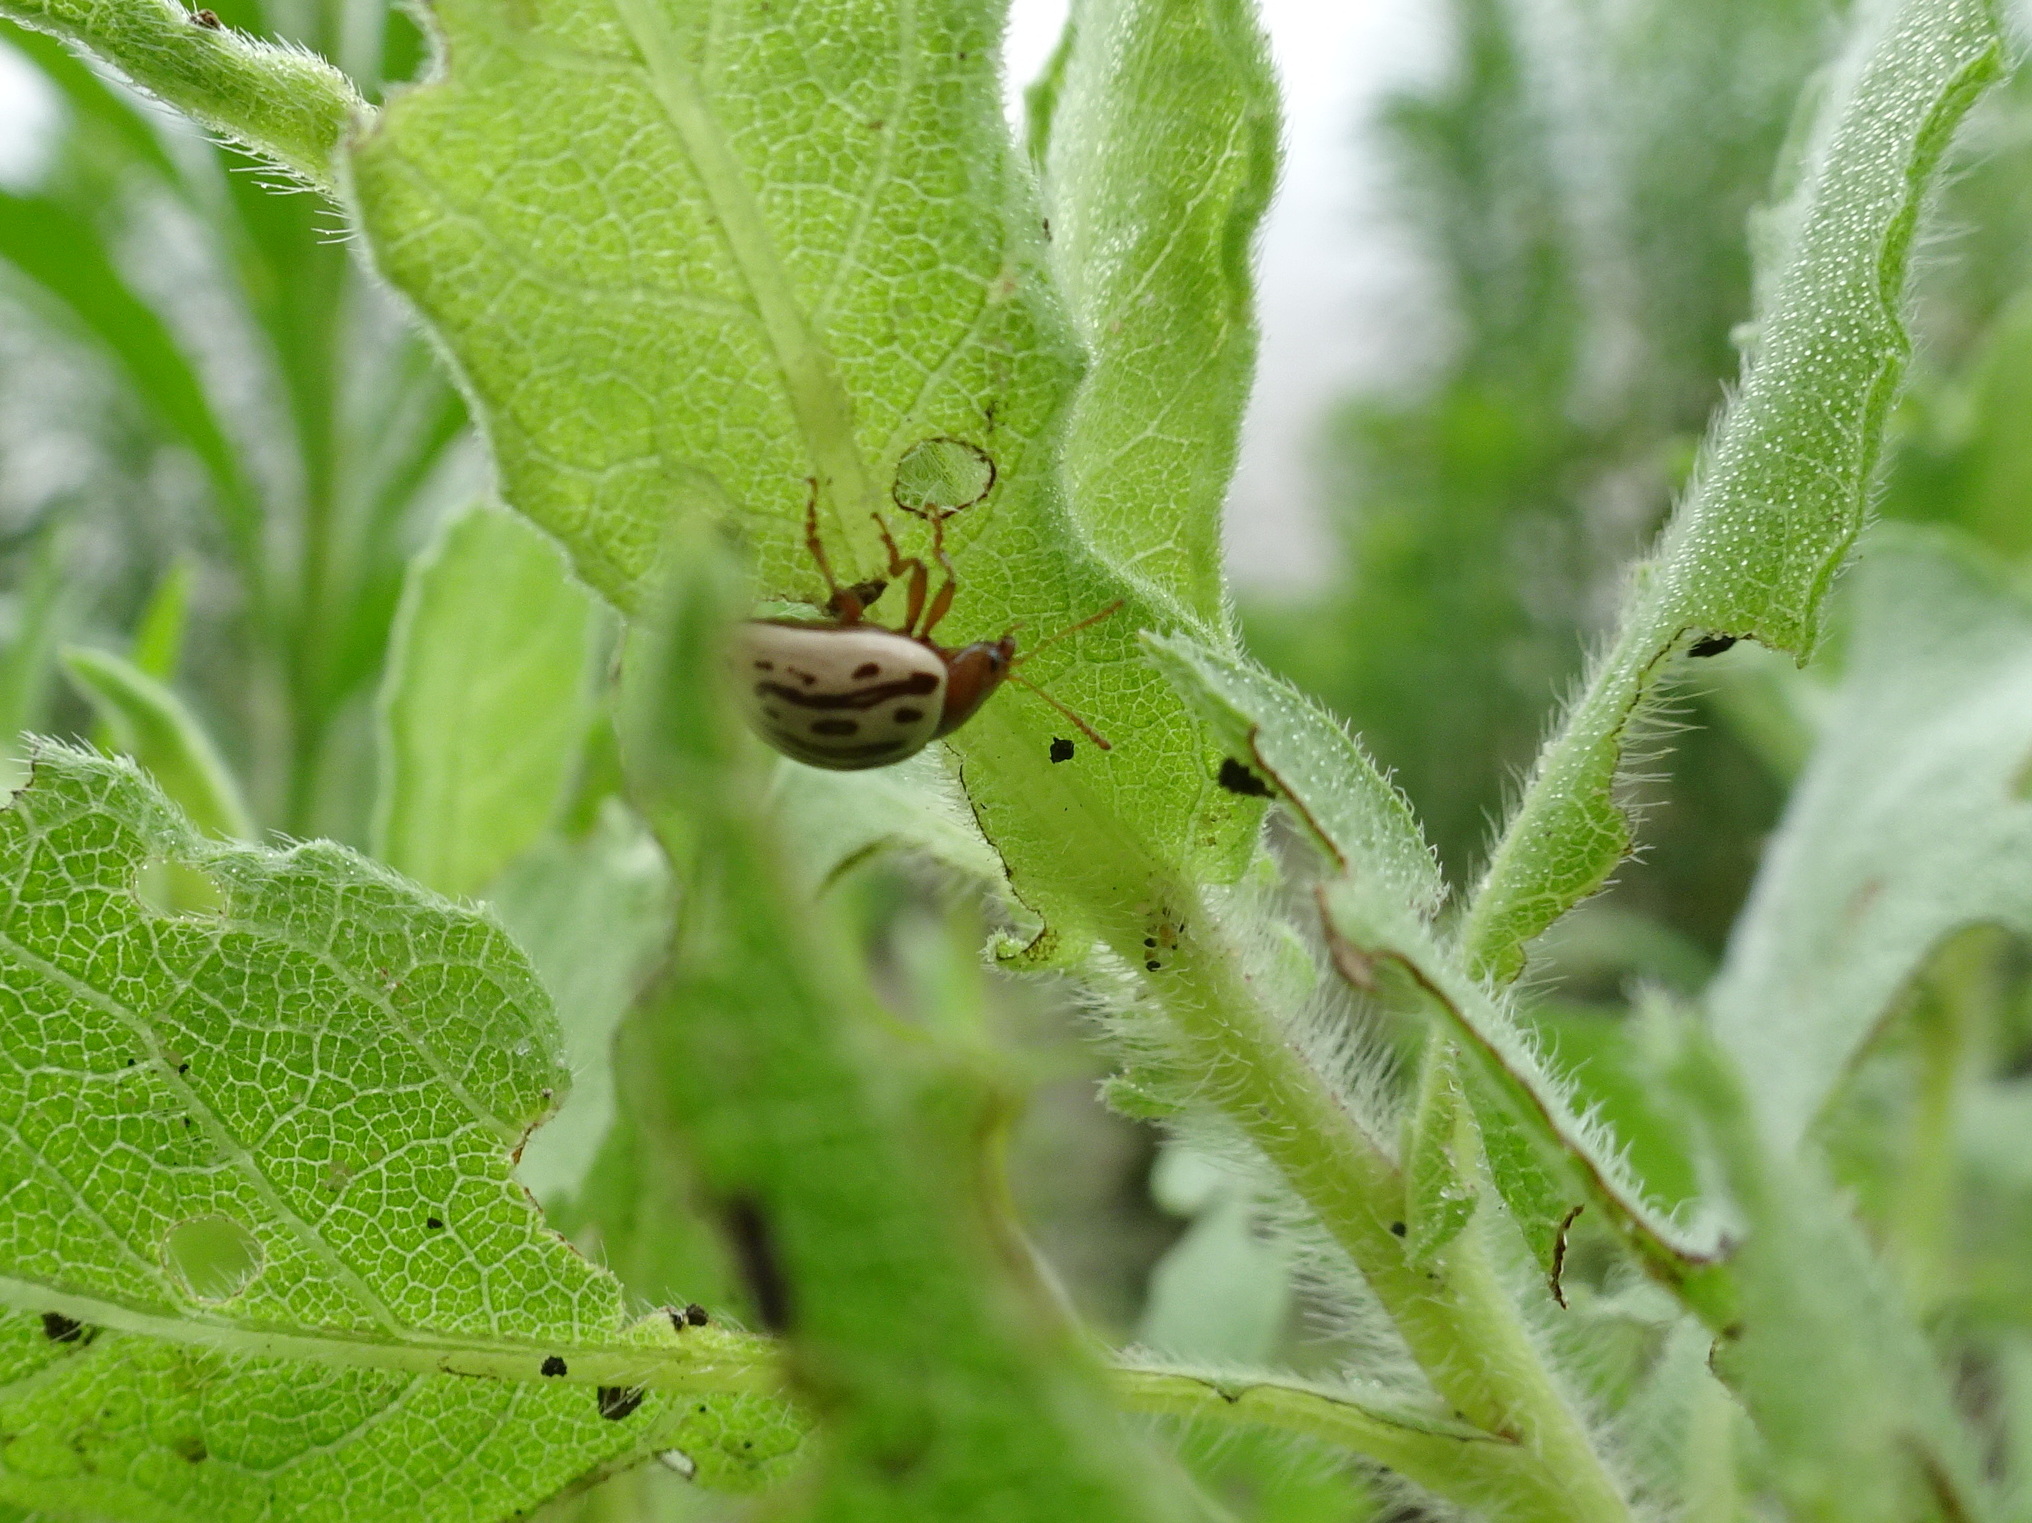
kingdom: Animalia
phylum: Arthropoda
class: Insecta
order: Coleoptera
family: Chrysomelidae
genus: Calligrapha
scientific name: Calligrapha
